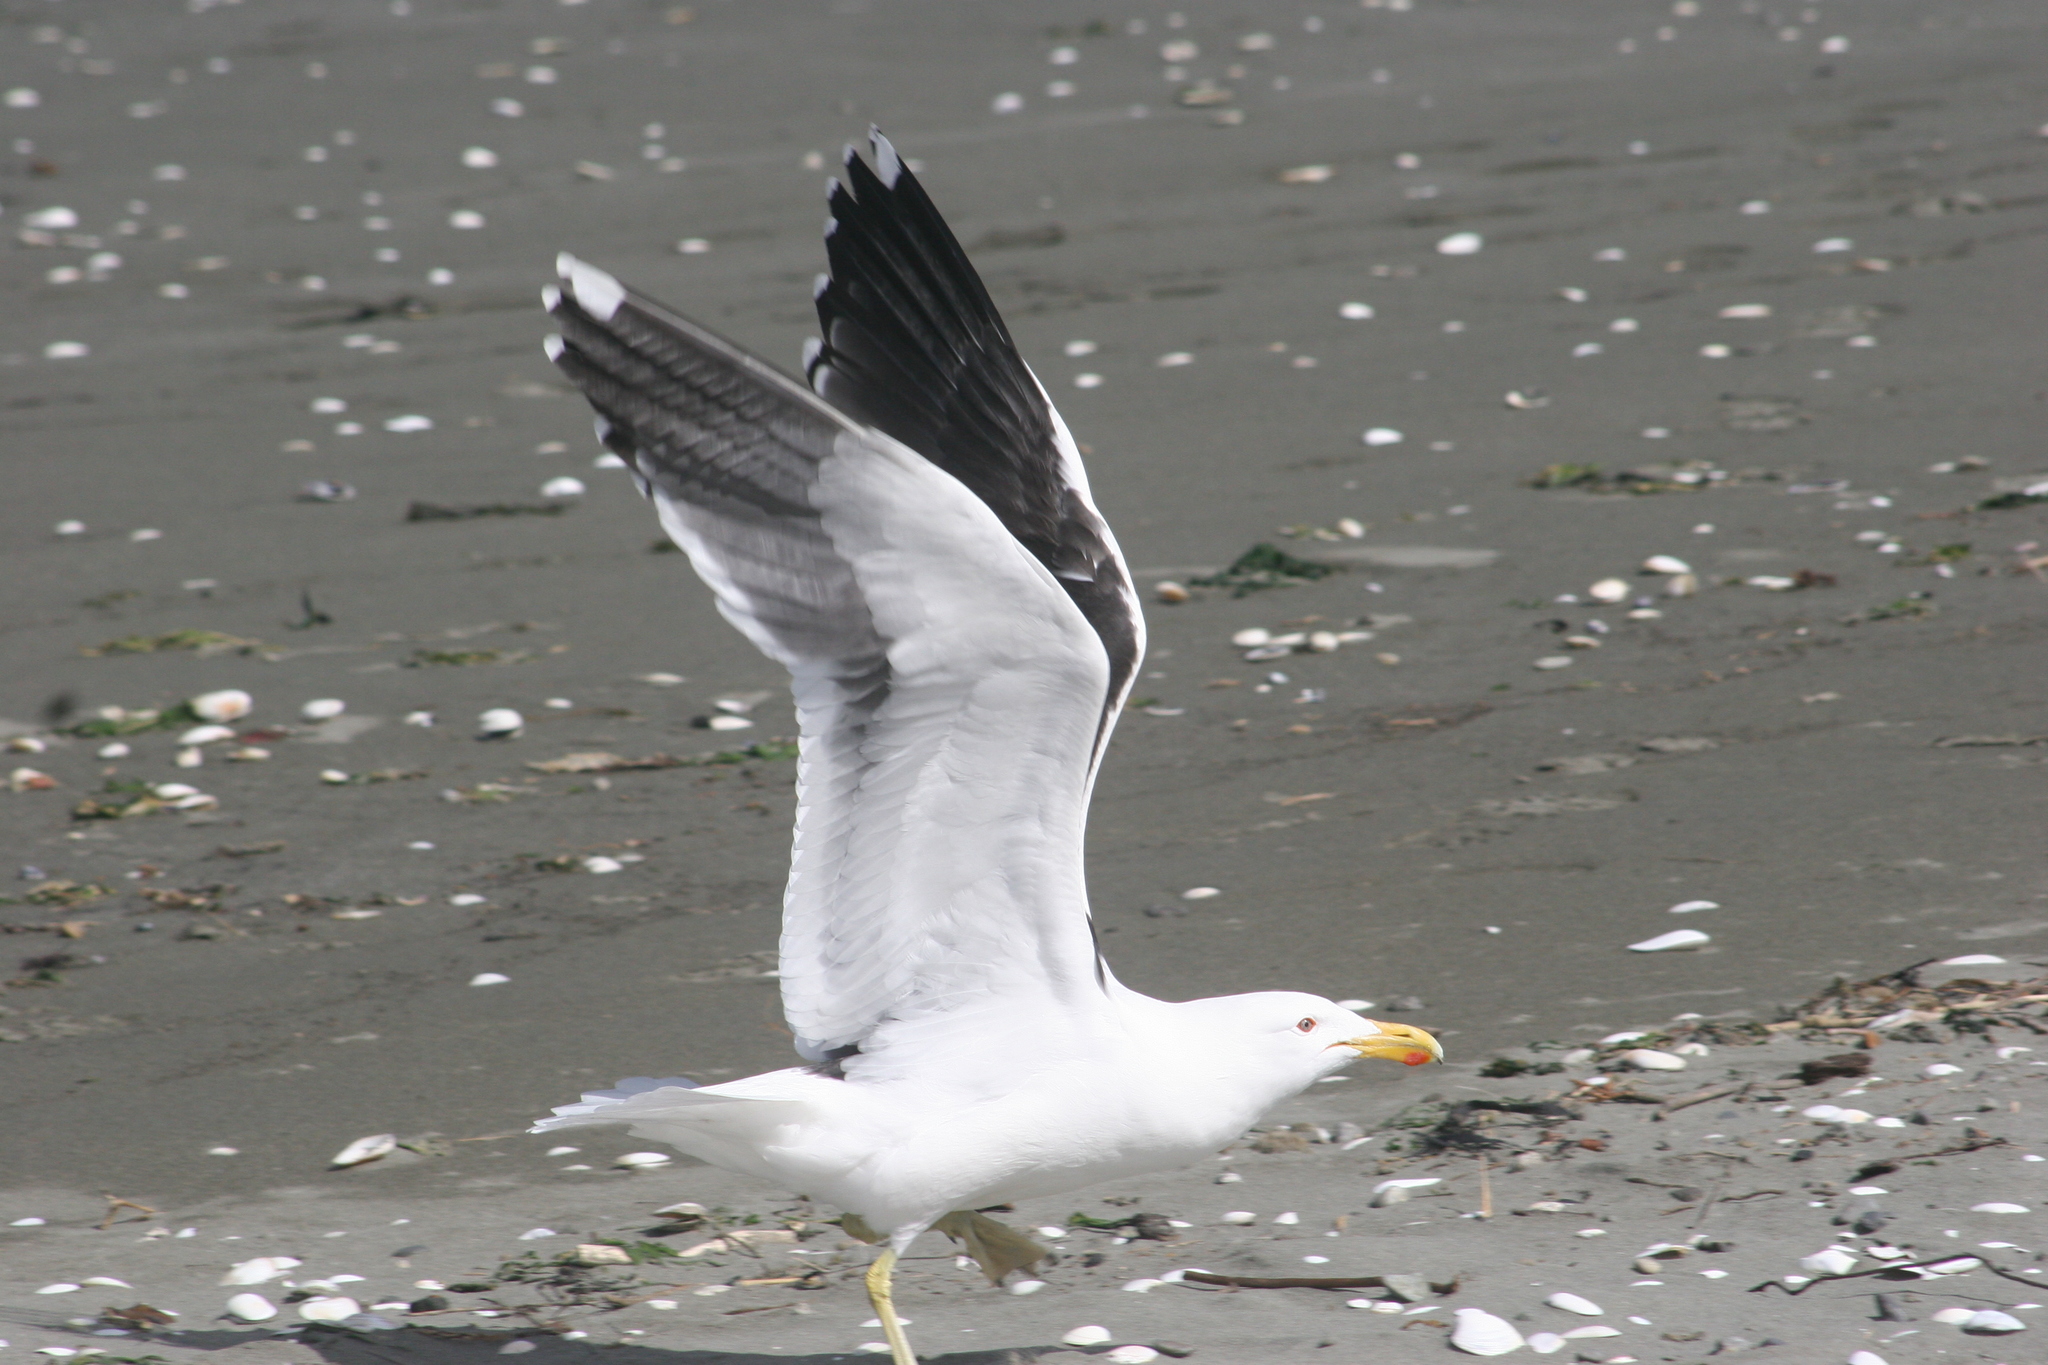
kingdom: Animalia
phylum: Chordata
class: Aves
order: Charadriiformes
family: Laridae
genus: Larus
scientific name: Larus dominicanus
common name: Kelp gull
